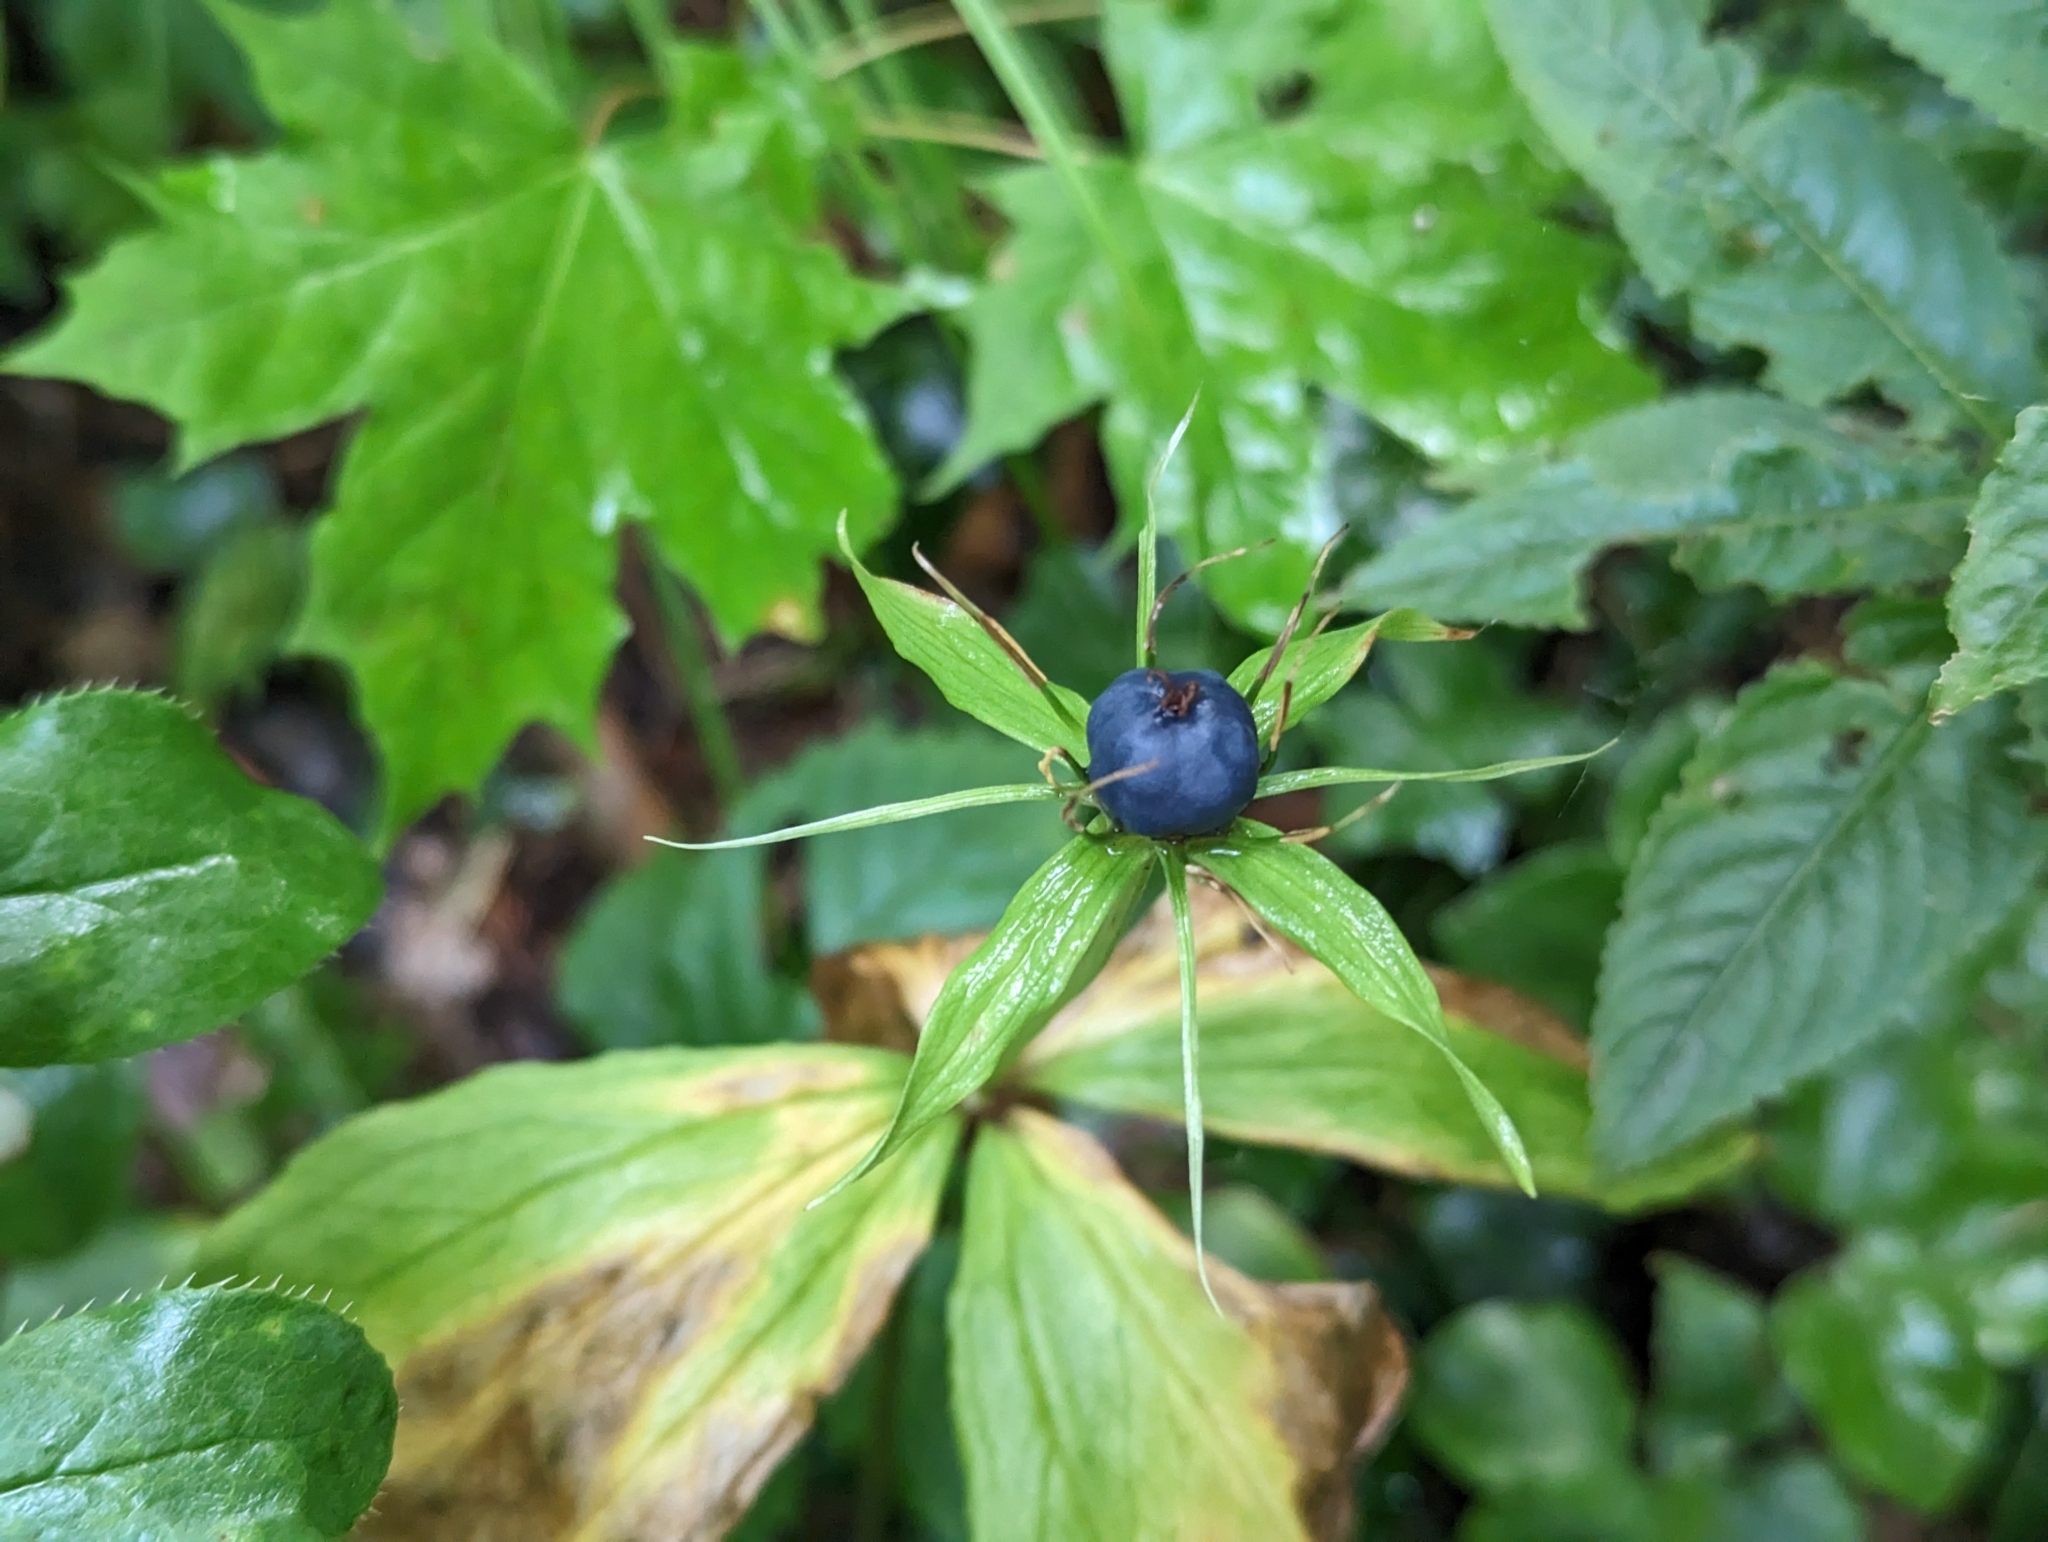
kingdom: Plantae
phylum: Tracheophyta
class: Liliopsida
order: Liliales
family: Melanthiaceae
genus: Paris
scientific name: Paris quadrifolia
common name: Herb-paris
